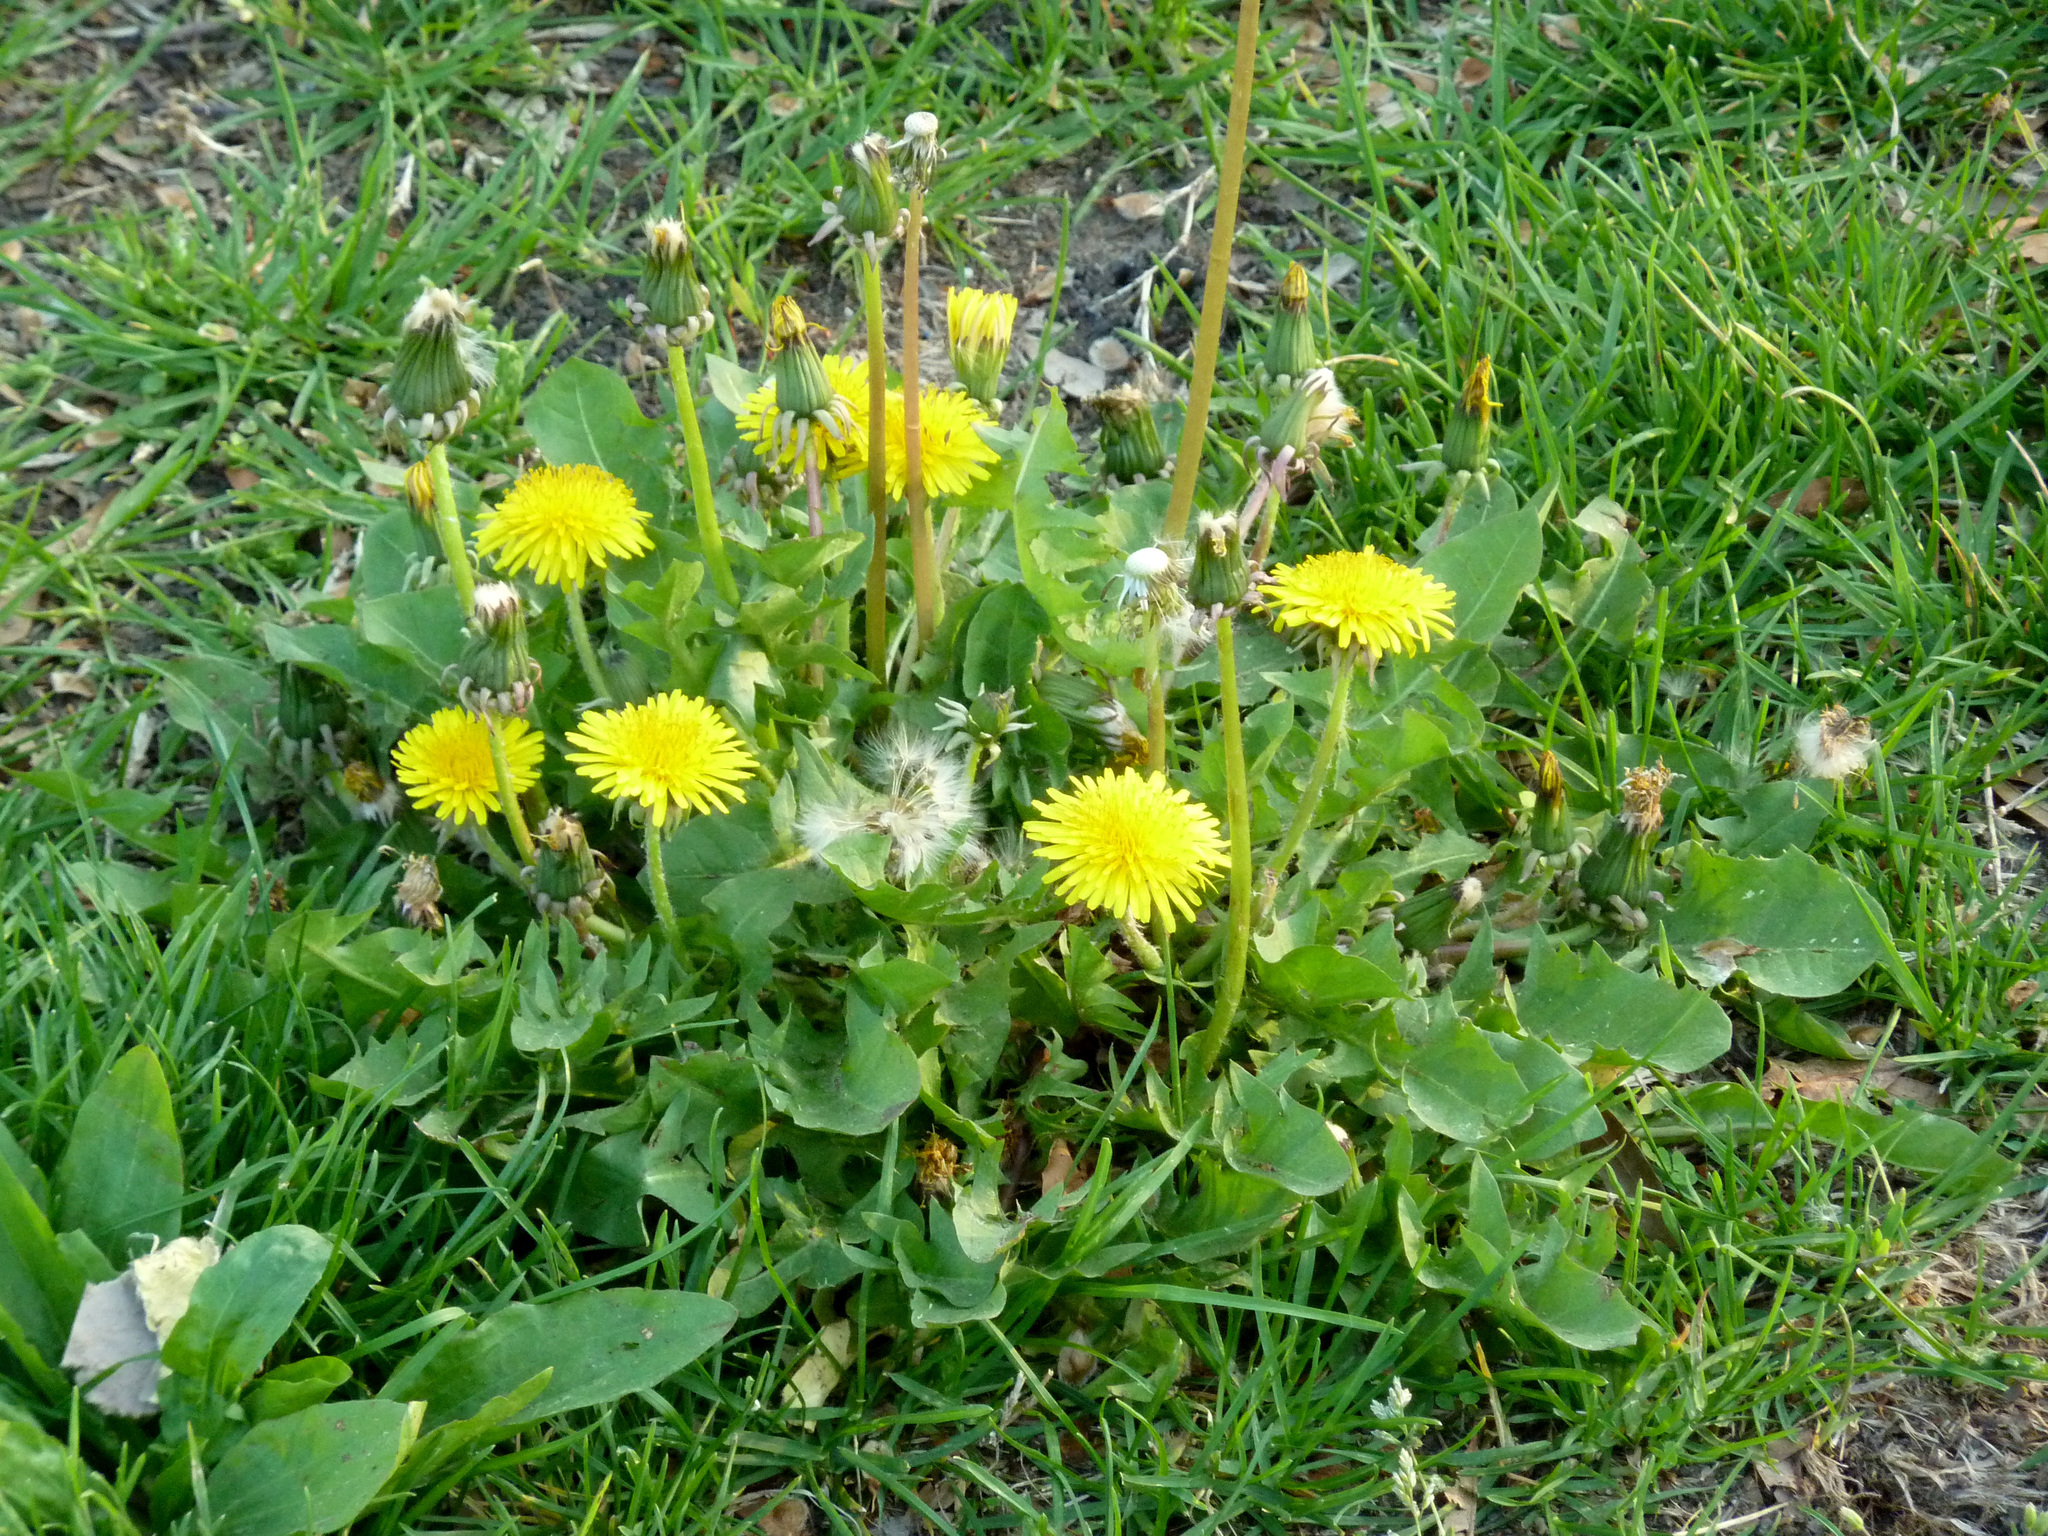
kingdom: Plantae
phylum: Tracheophyta
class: Magnoliopsida
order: Asterales
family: Asteraceae
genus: Taraxacum
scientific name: Taraxacum
